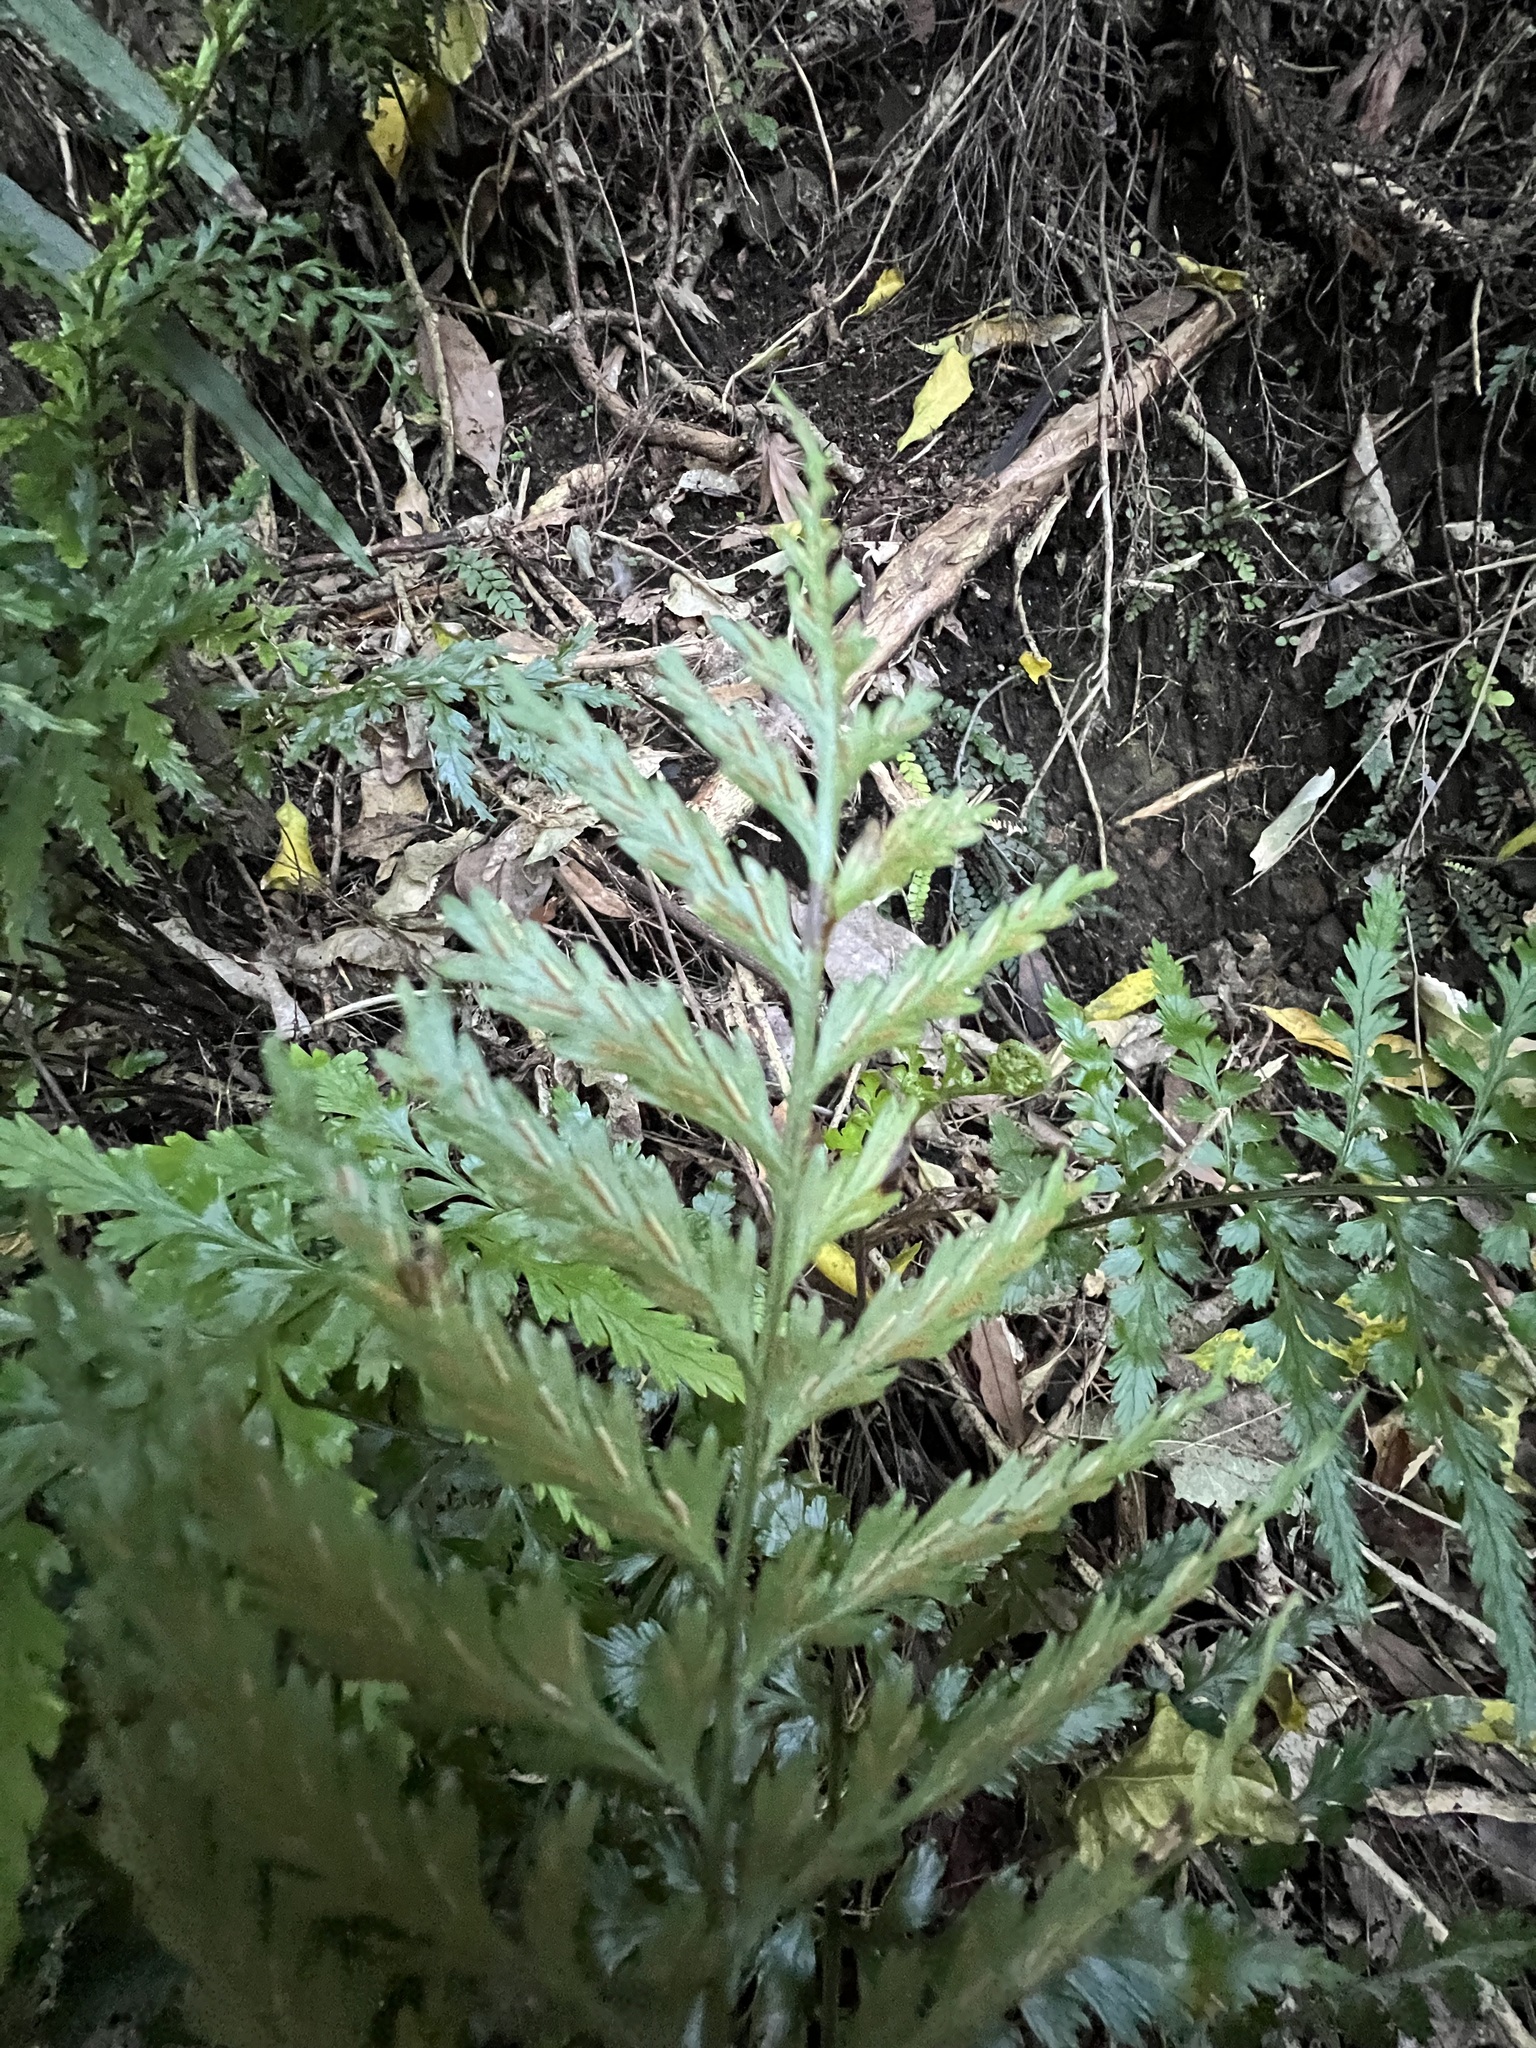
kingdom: Plantae
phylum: Tracheophyta
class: Polypodiopsida
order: Polypodiales
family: Aspleniaceae
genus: Asplenium
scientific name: Asplenium lamprophyllum
